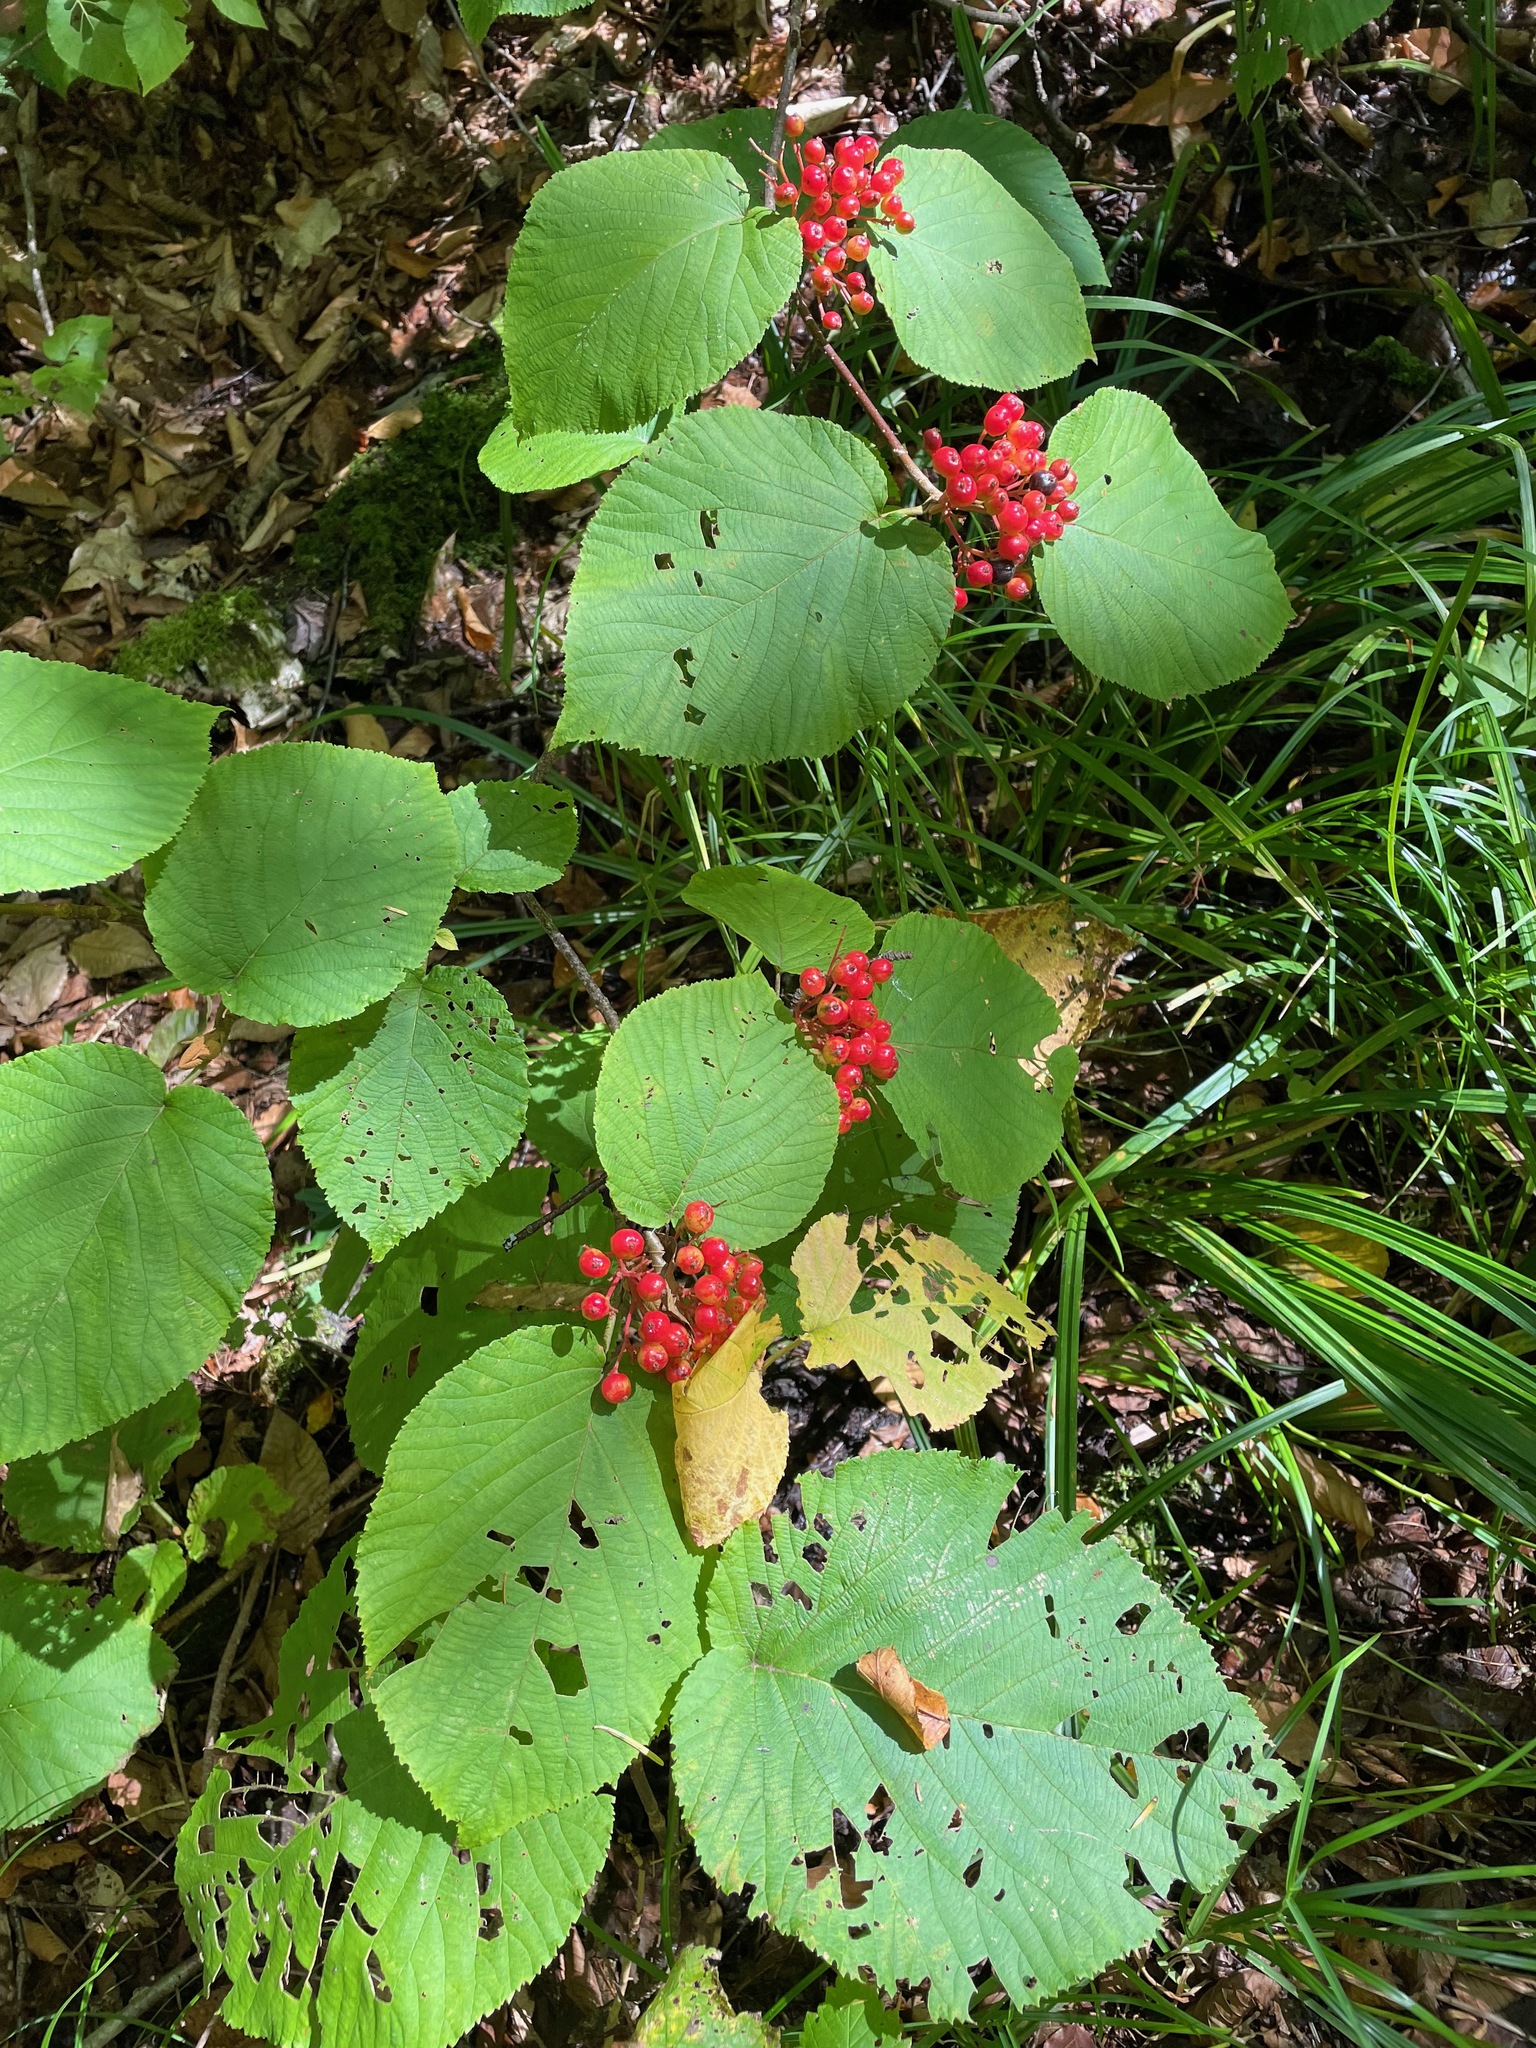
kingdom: Plantae
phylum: Tracheophyta
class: Magnoliopsida
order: Dipsacales
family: Viburnaceae
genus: Viburnum
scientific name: Viburnum lantanoides
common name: Hobblebush
